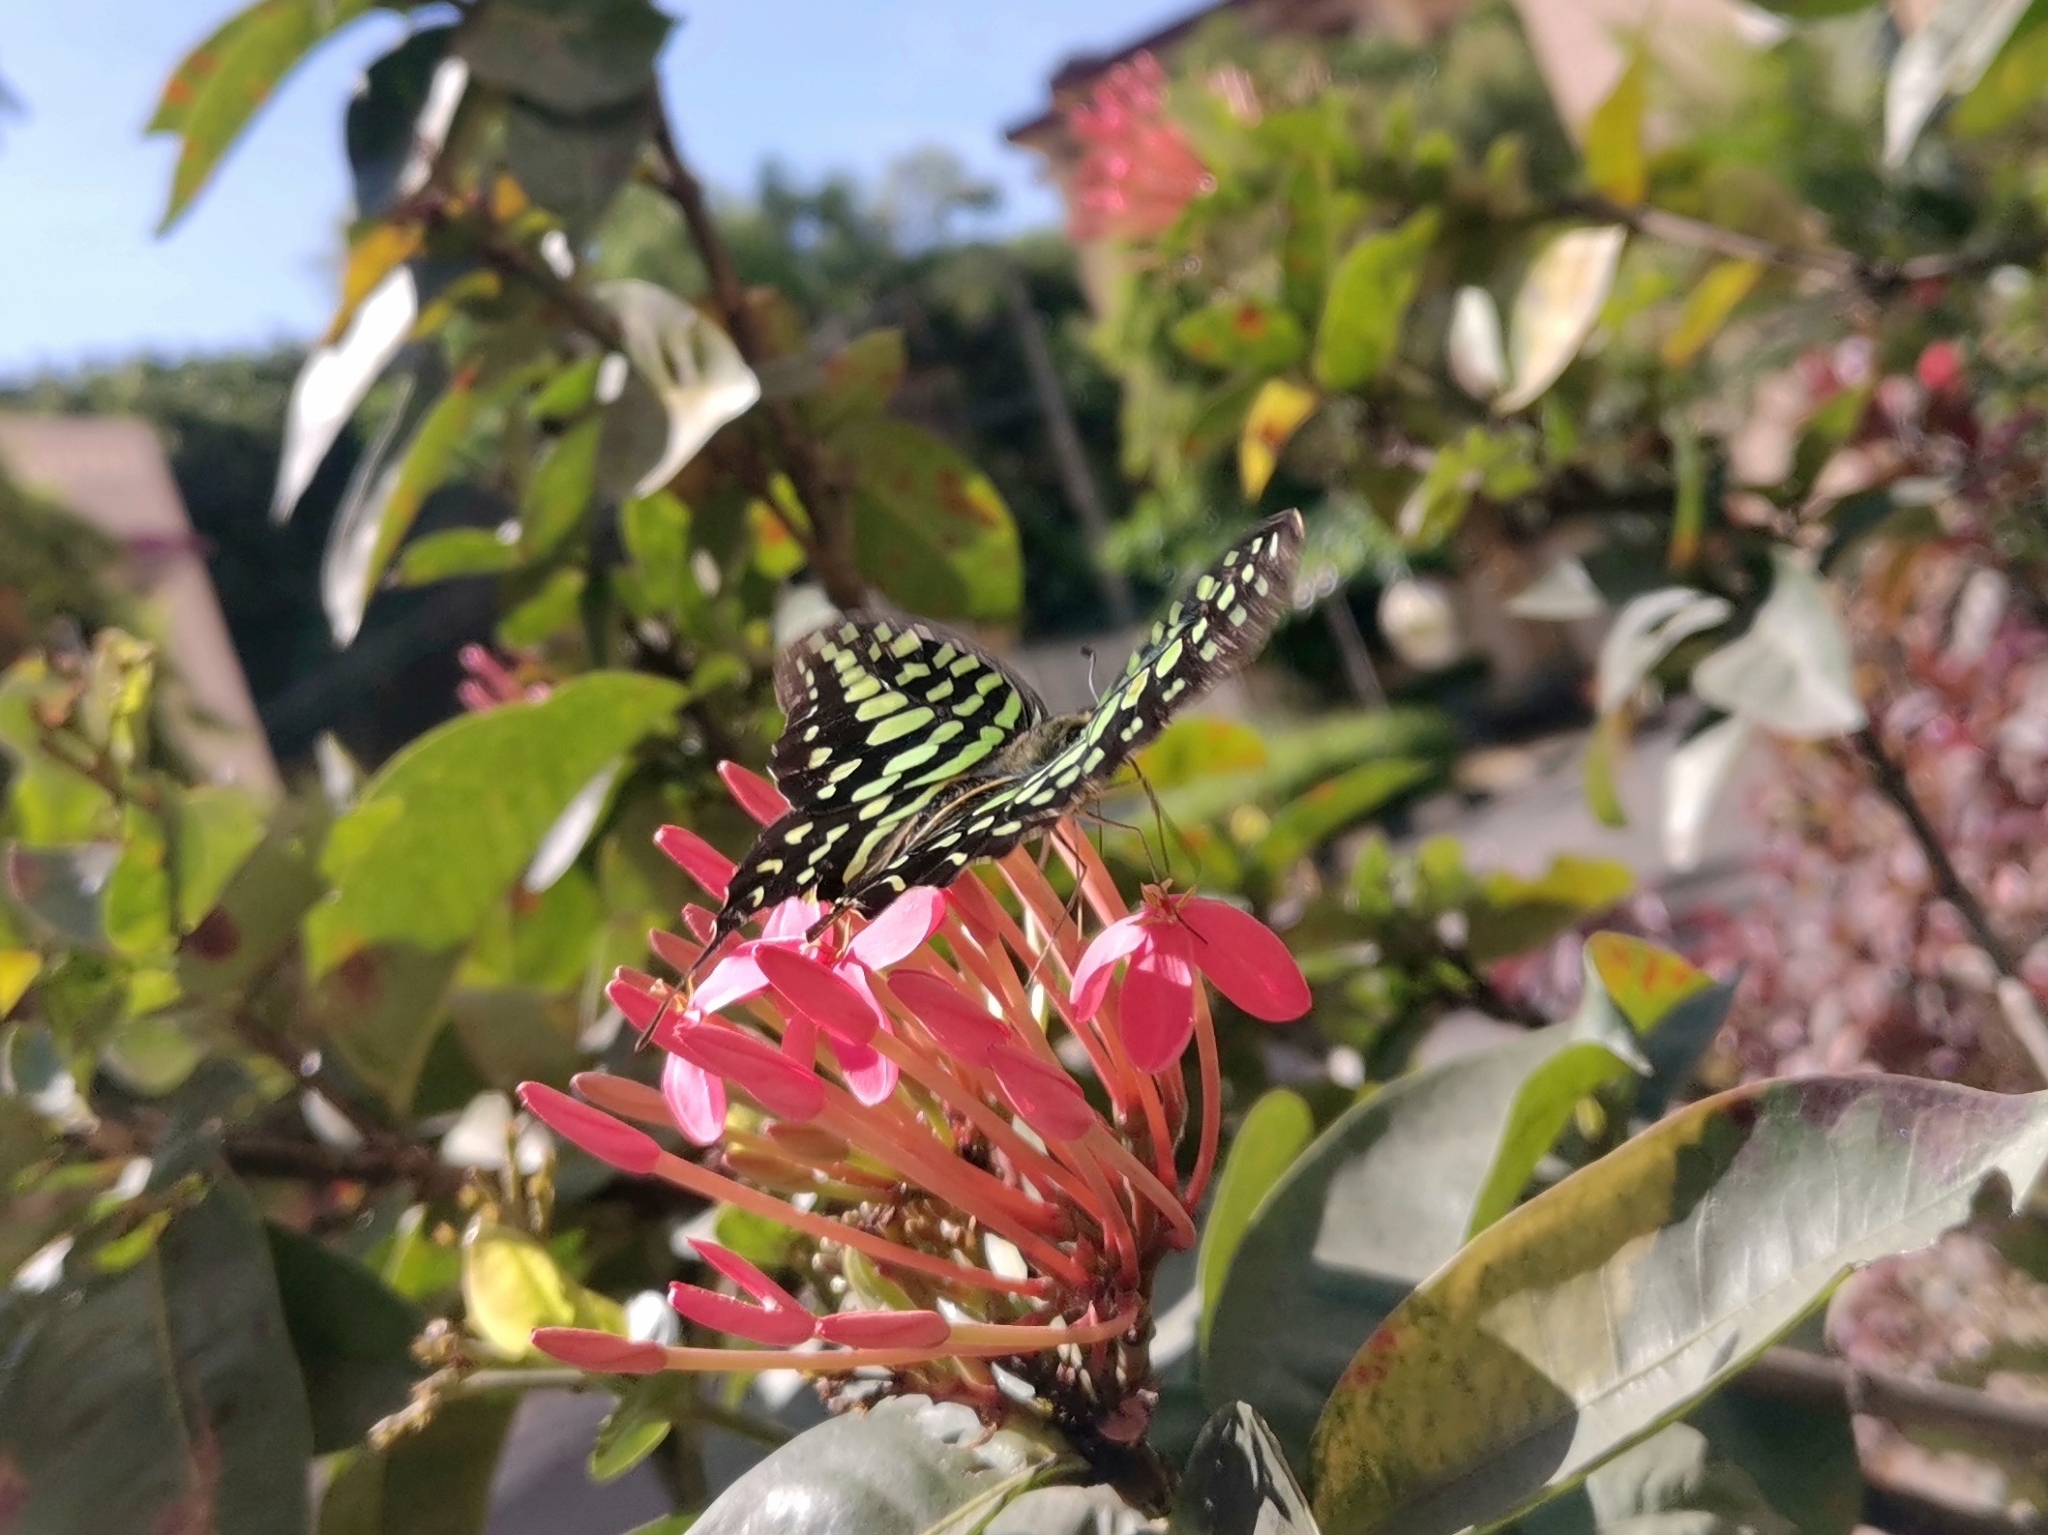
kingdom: Animalia
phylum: Arthropoda
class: Insecta
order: Lepidoptera
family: Papilionidae
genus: Graphium
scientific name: Graphium agamemnon
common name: Tailed jay
